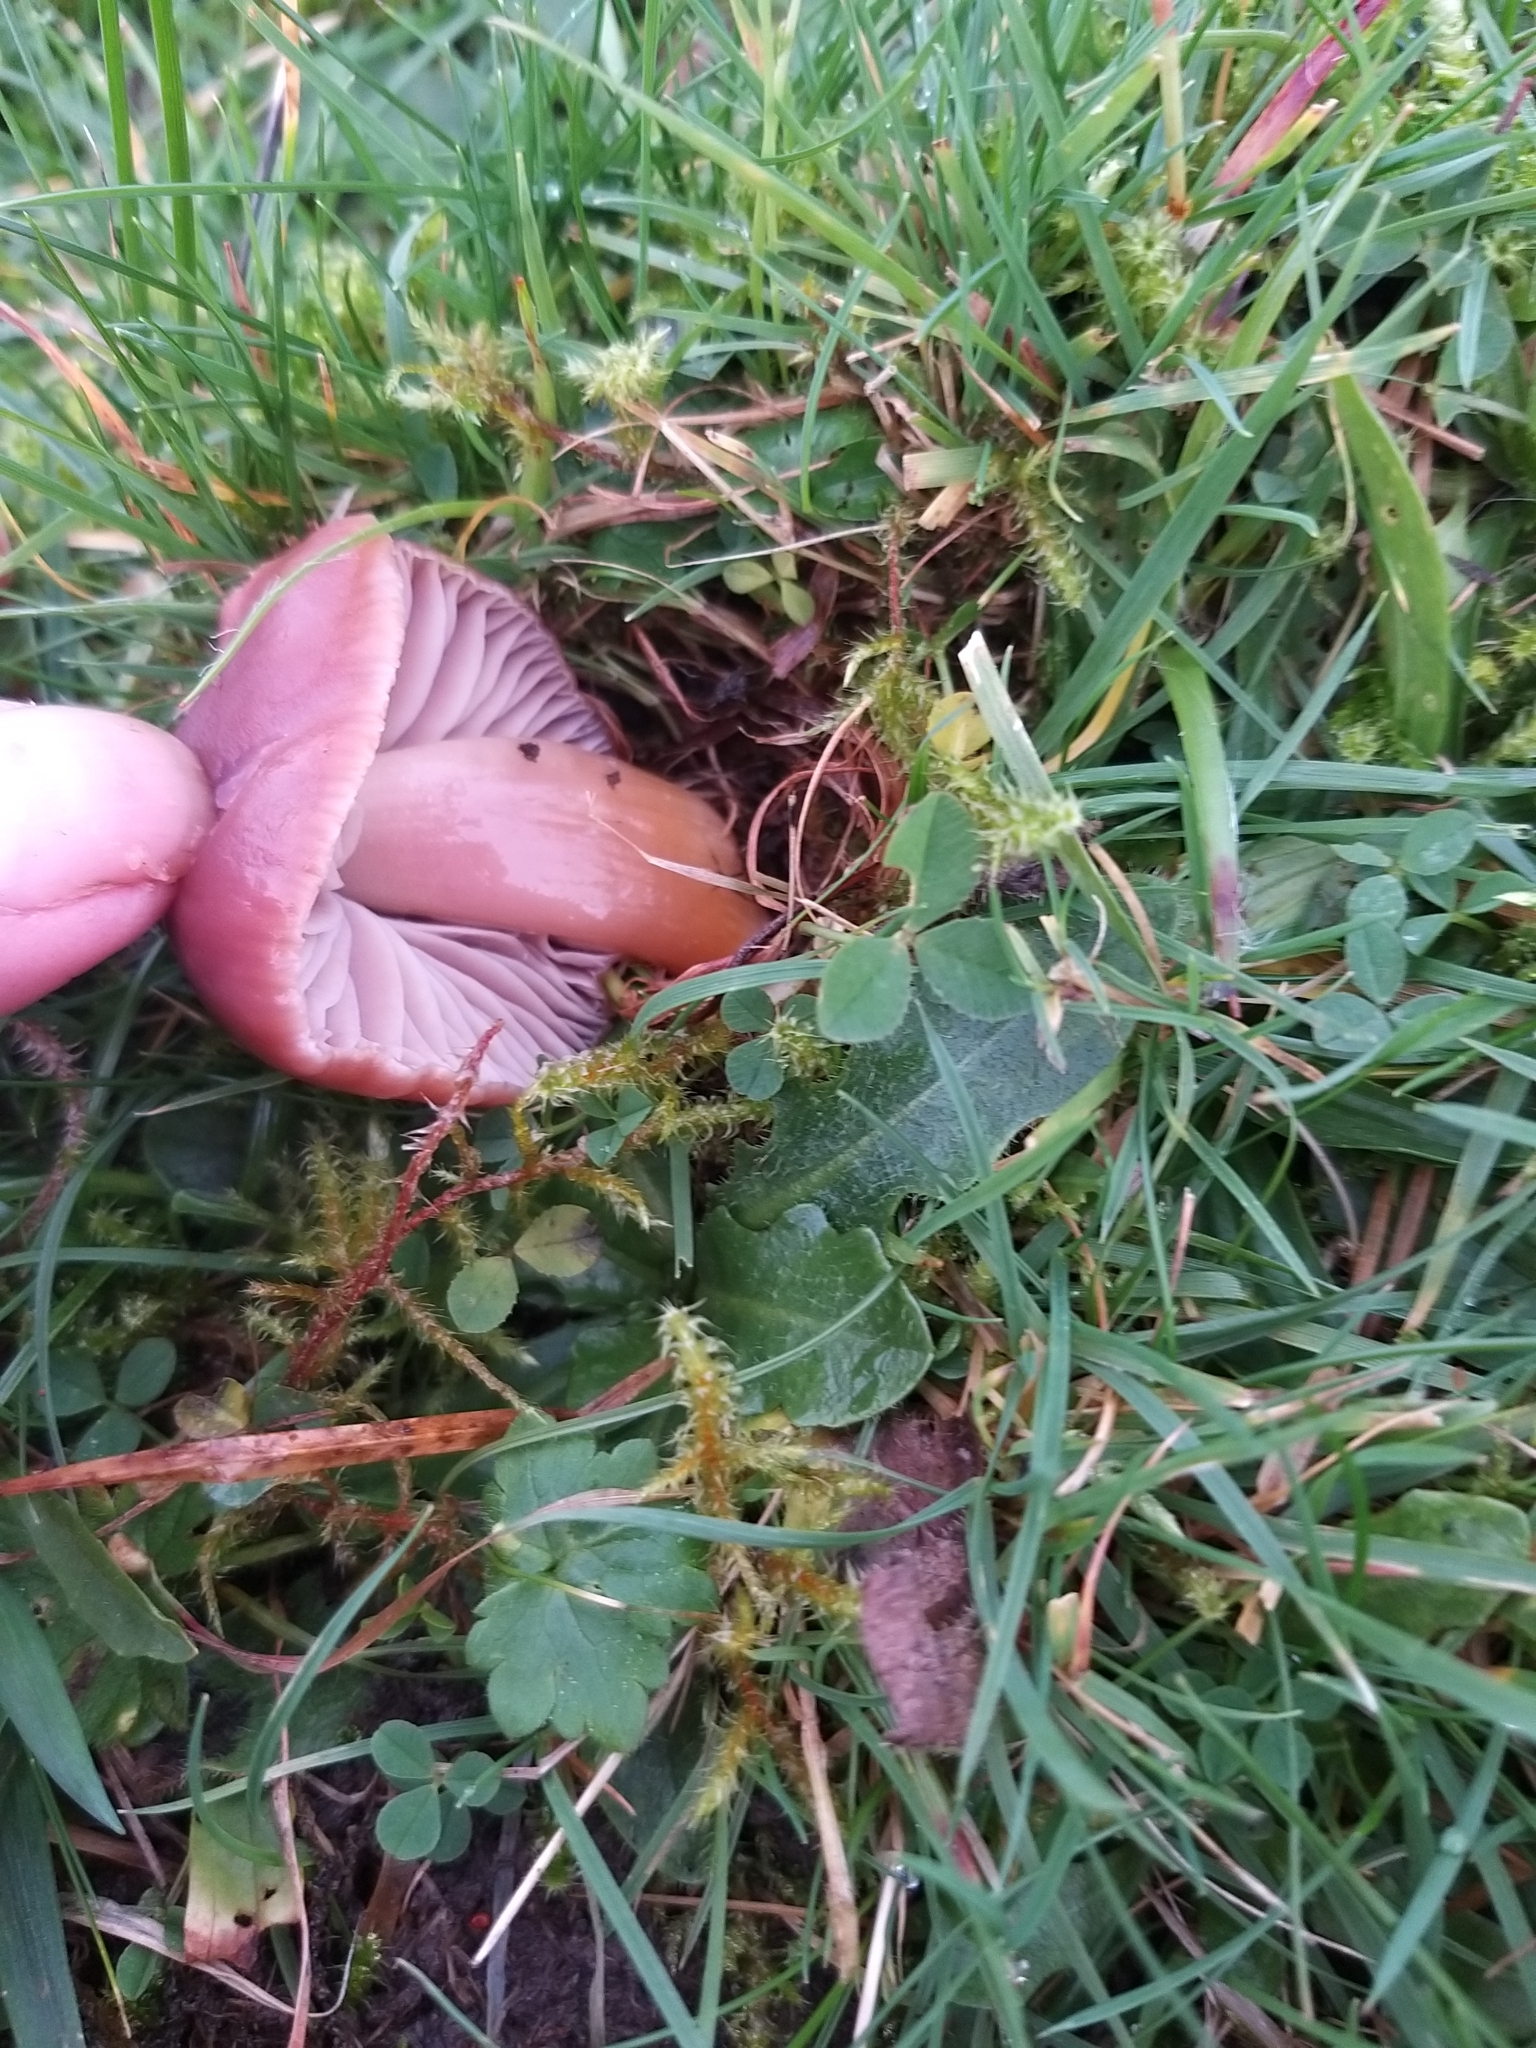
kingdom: Fungi
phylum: Basidiomycota
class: Agaricomycetes
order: Agaricales
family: Hygrophoraceae
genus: Gliophorus
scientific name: Gliophorus reginae
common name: Jubilee waxcap
